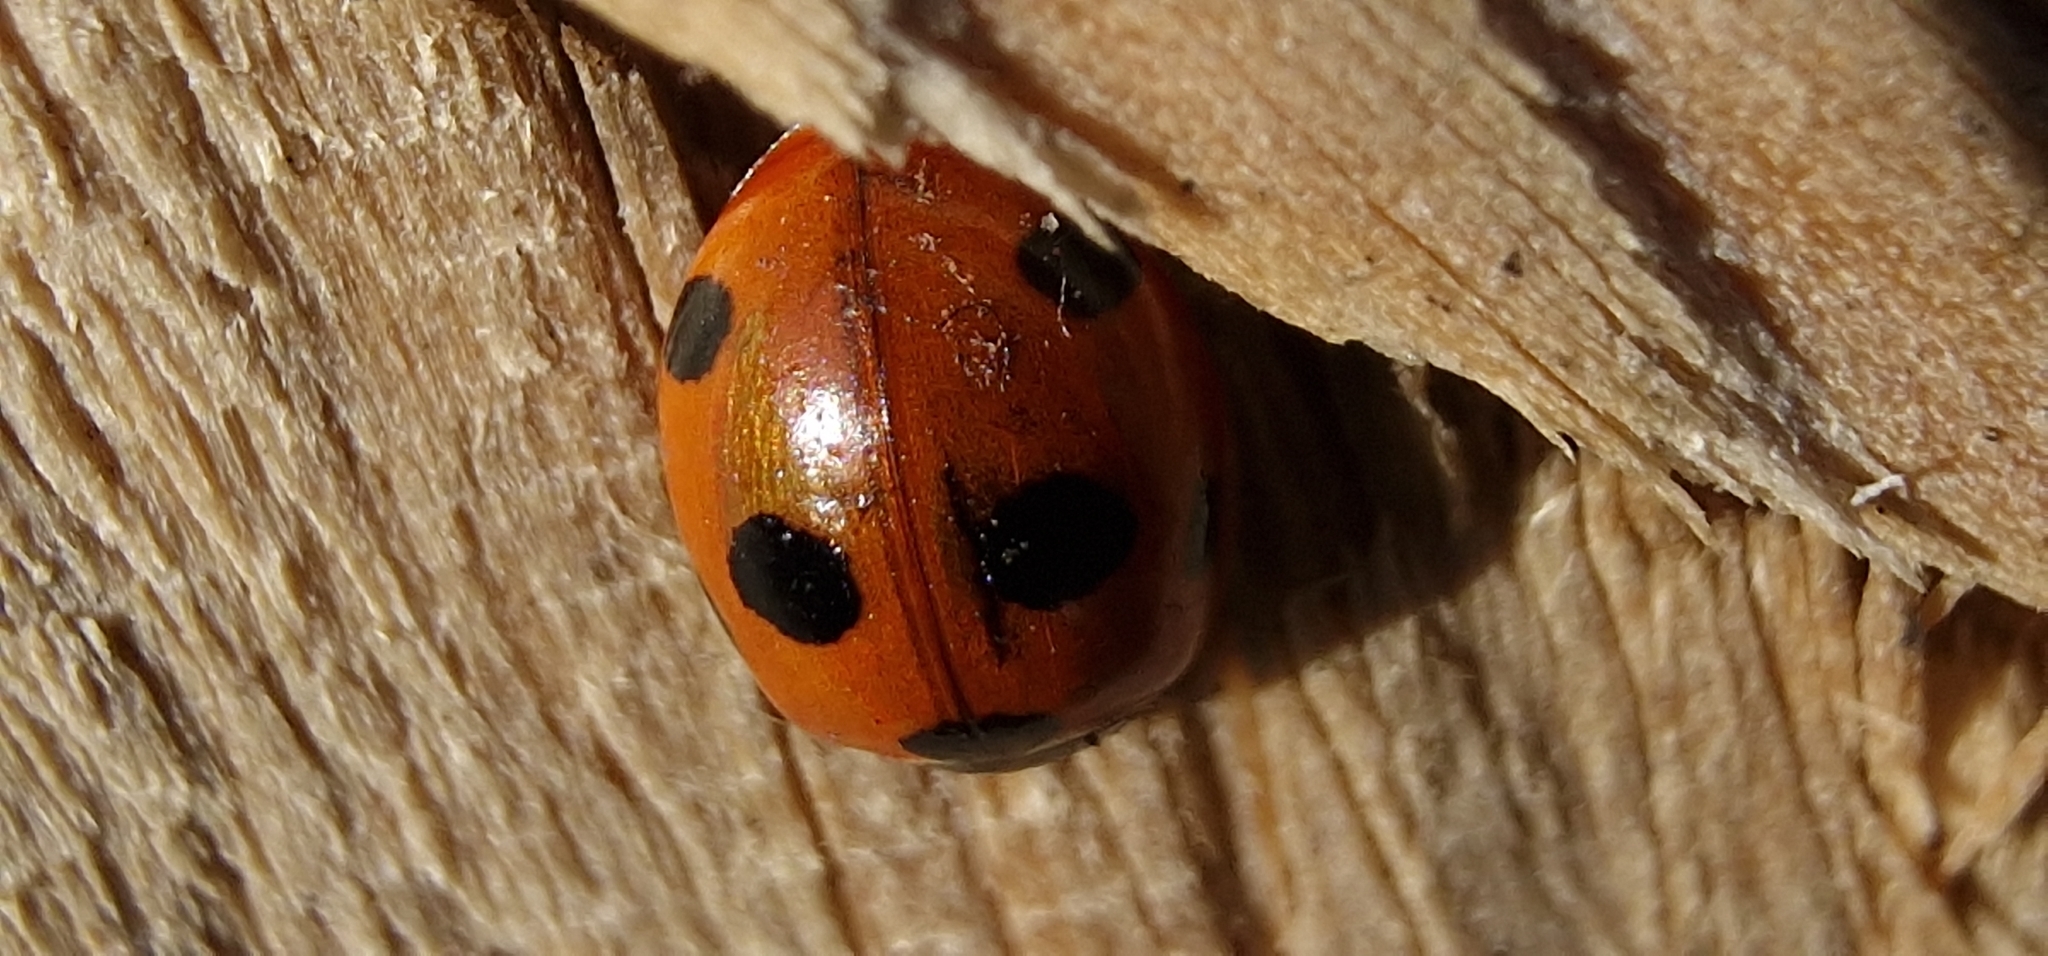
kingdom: Animalia
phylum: Arthropoda
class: Insecta
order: Coleoptera
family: Coccinellidae
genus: Coccinella
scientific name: Coccinella septempunctata
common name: Sevenspotted lady beetle
